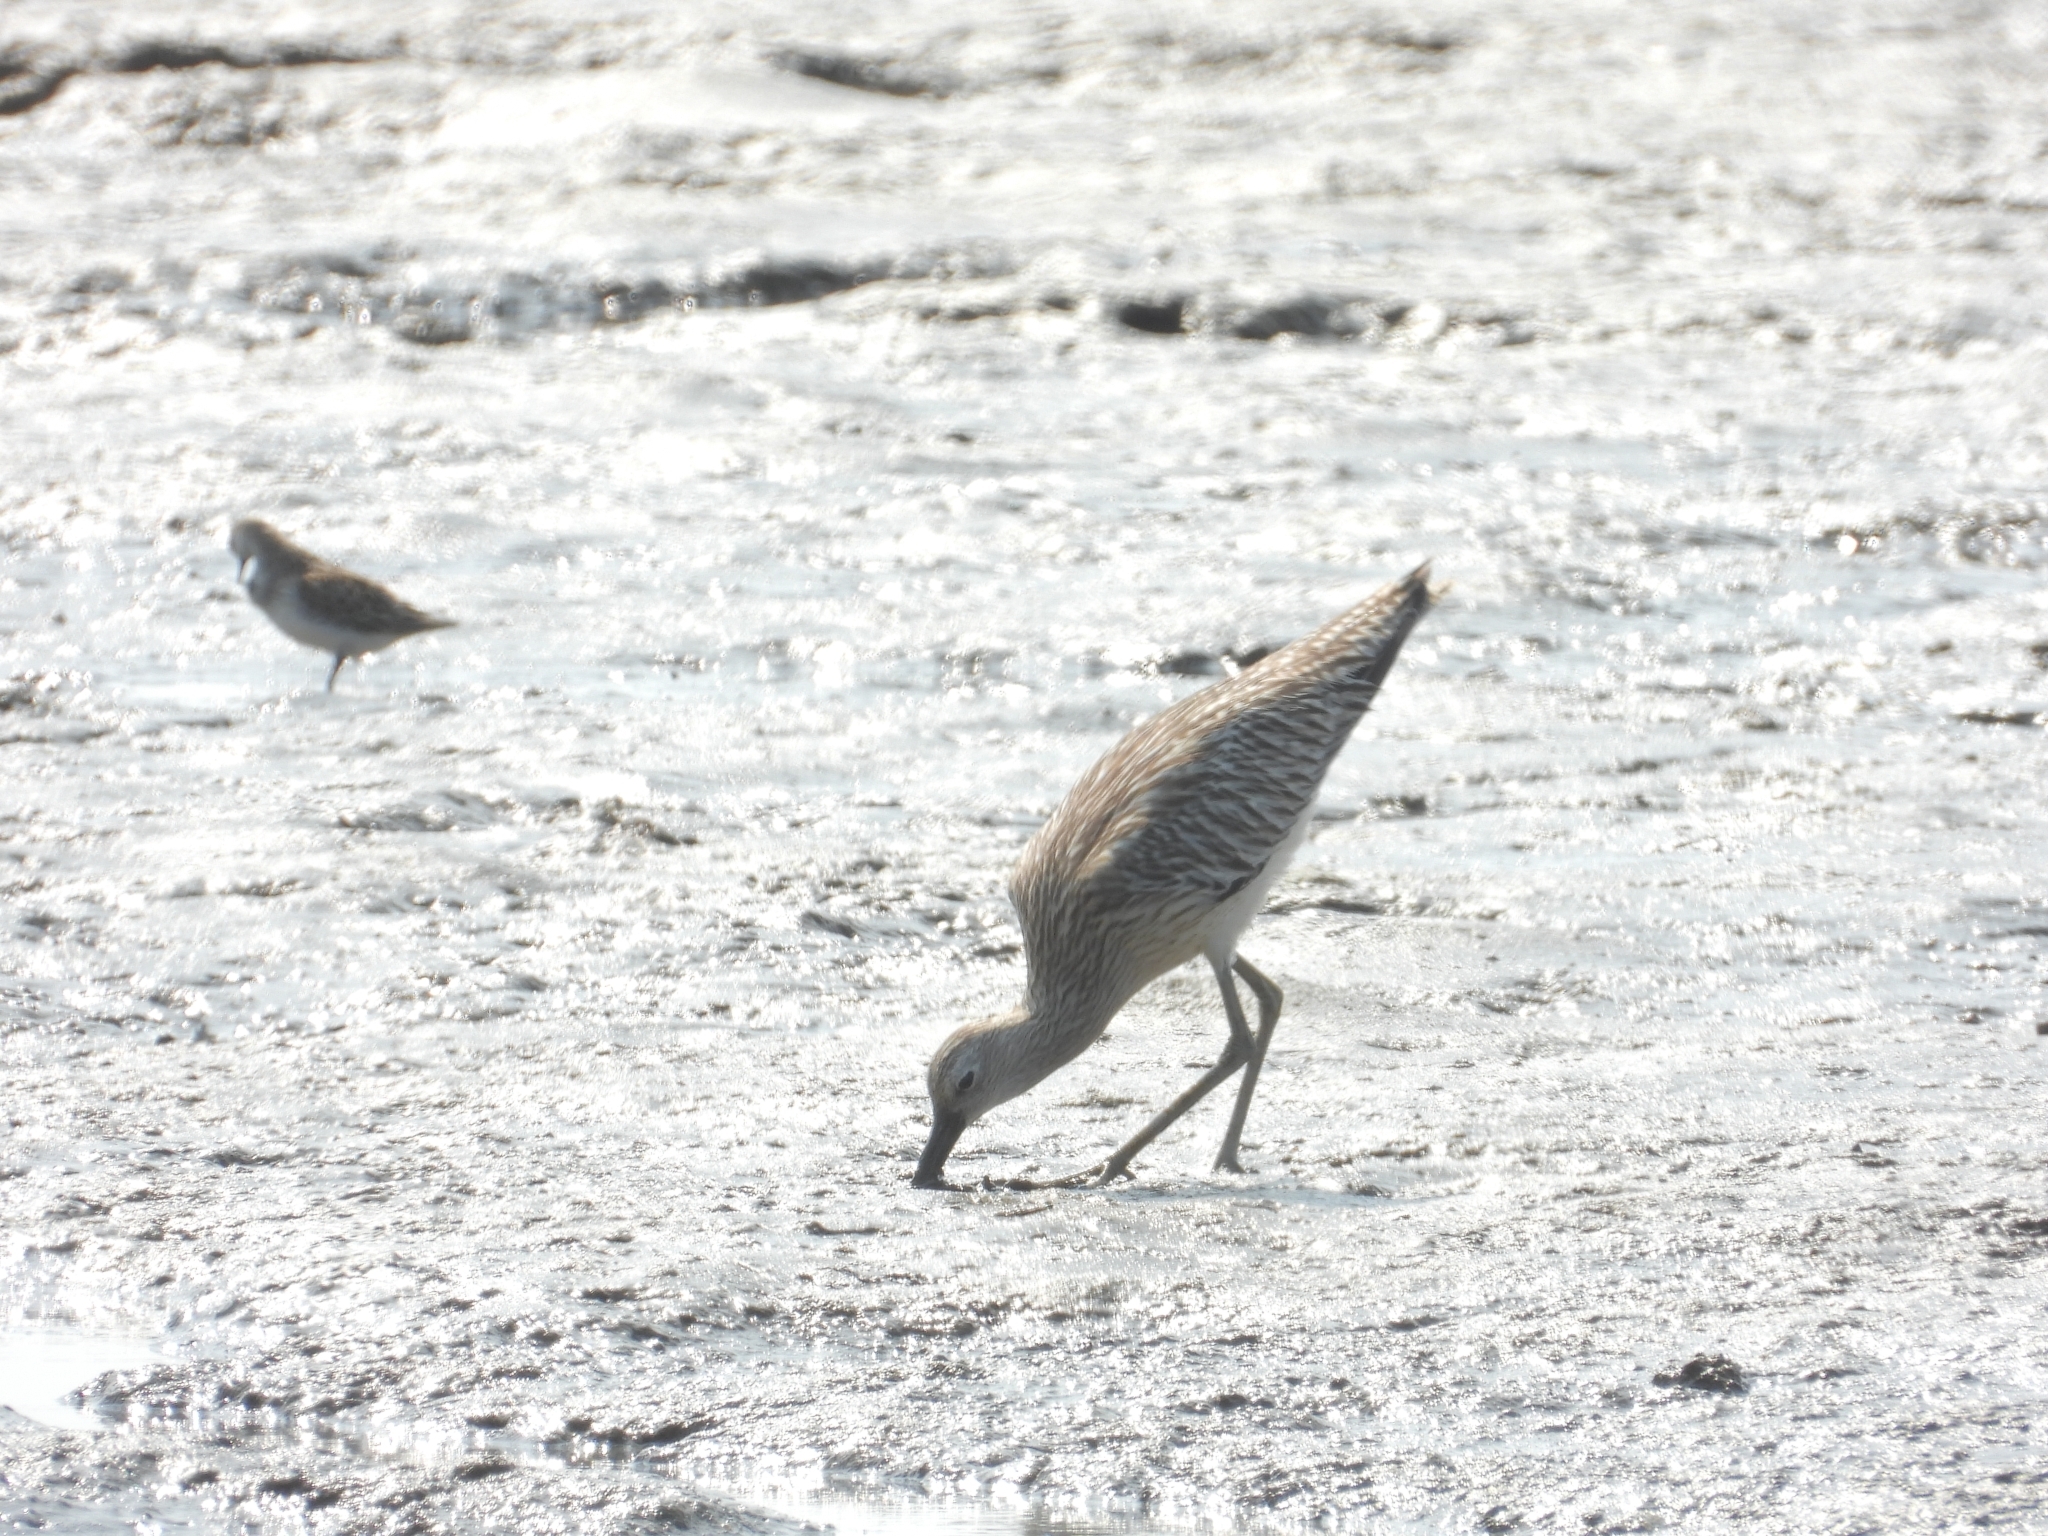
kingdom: Animalia
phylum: Chordata
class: Aves
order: Charadriiformes
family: Scolopacidae
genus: Numenius
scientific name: Numenius arquata
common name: Eurasian curlew
